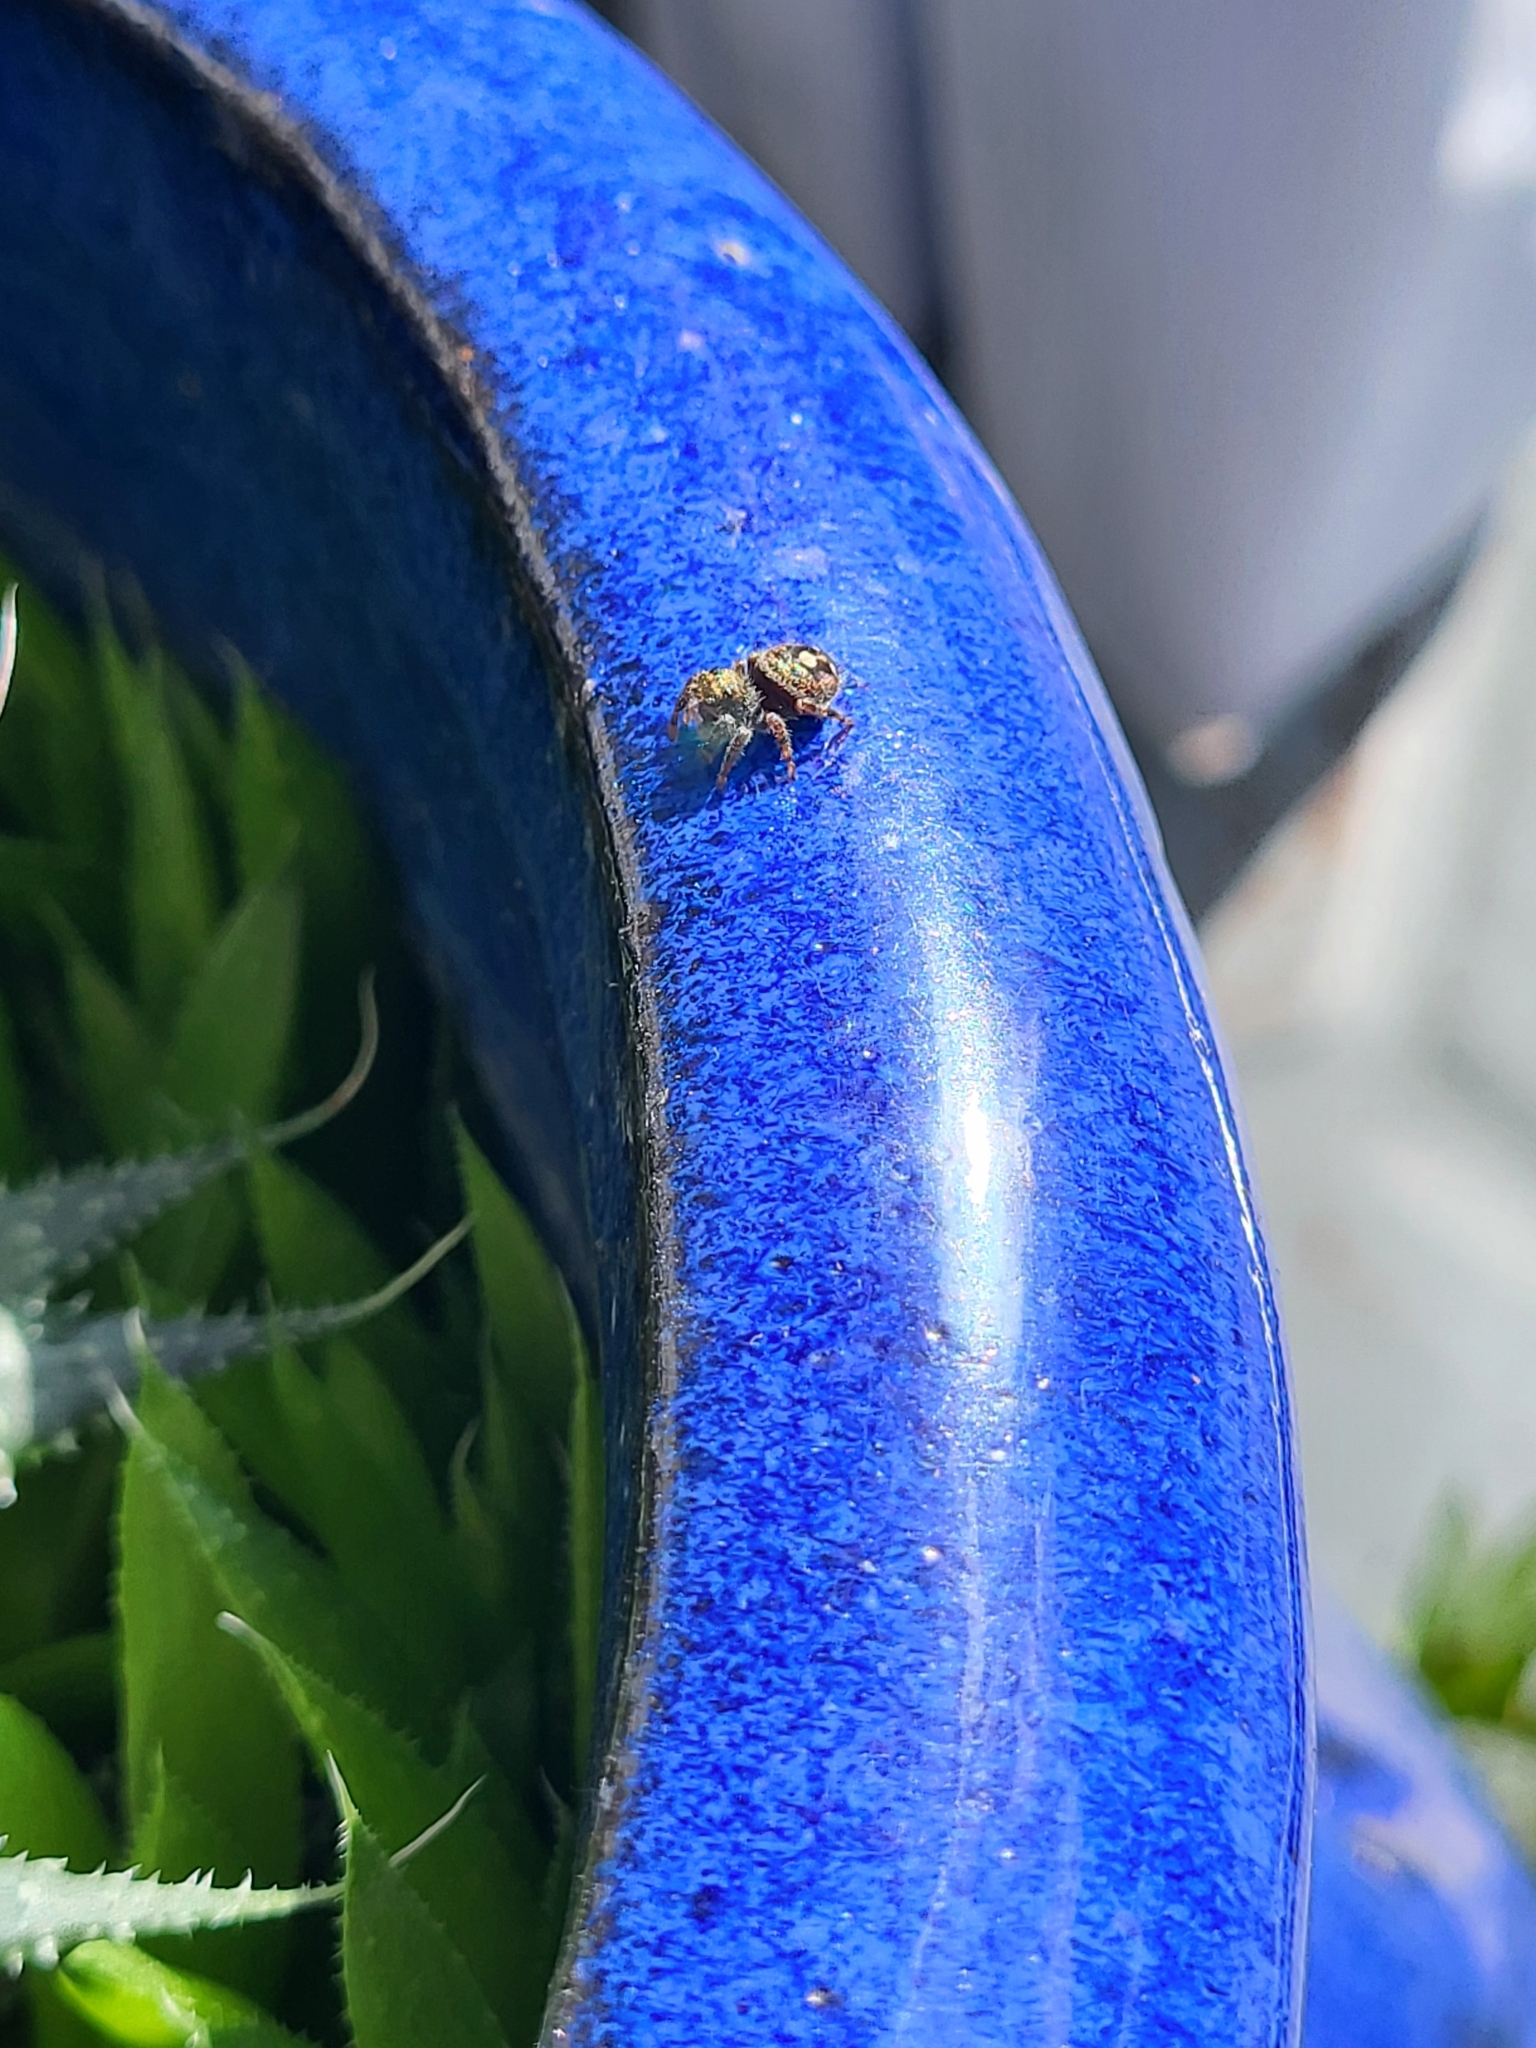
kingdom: Animalia
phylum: Arthropoda
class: Arachnida
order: Araneae
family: Salticidae
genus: Phidippus
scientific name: Phidippus audax
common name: Bold jumper
